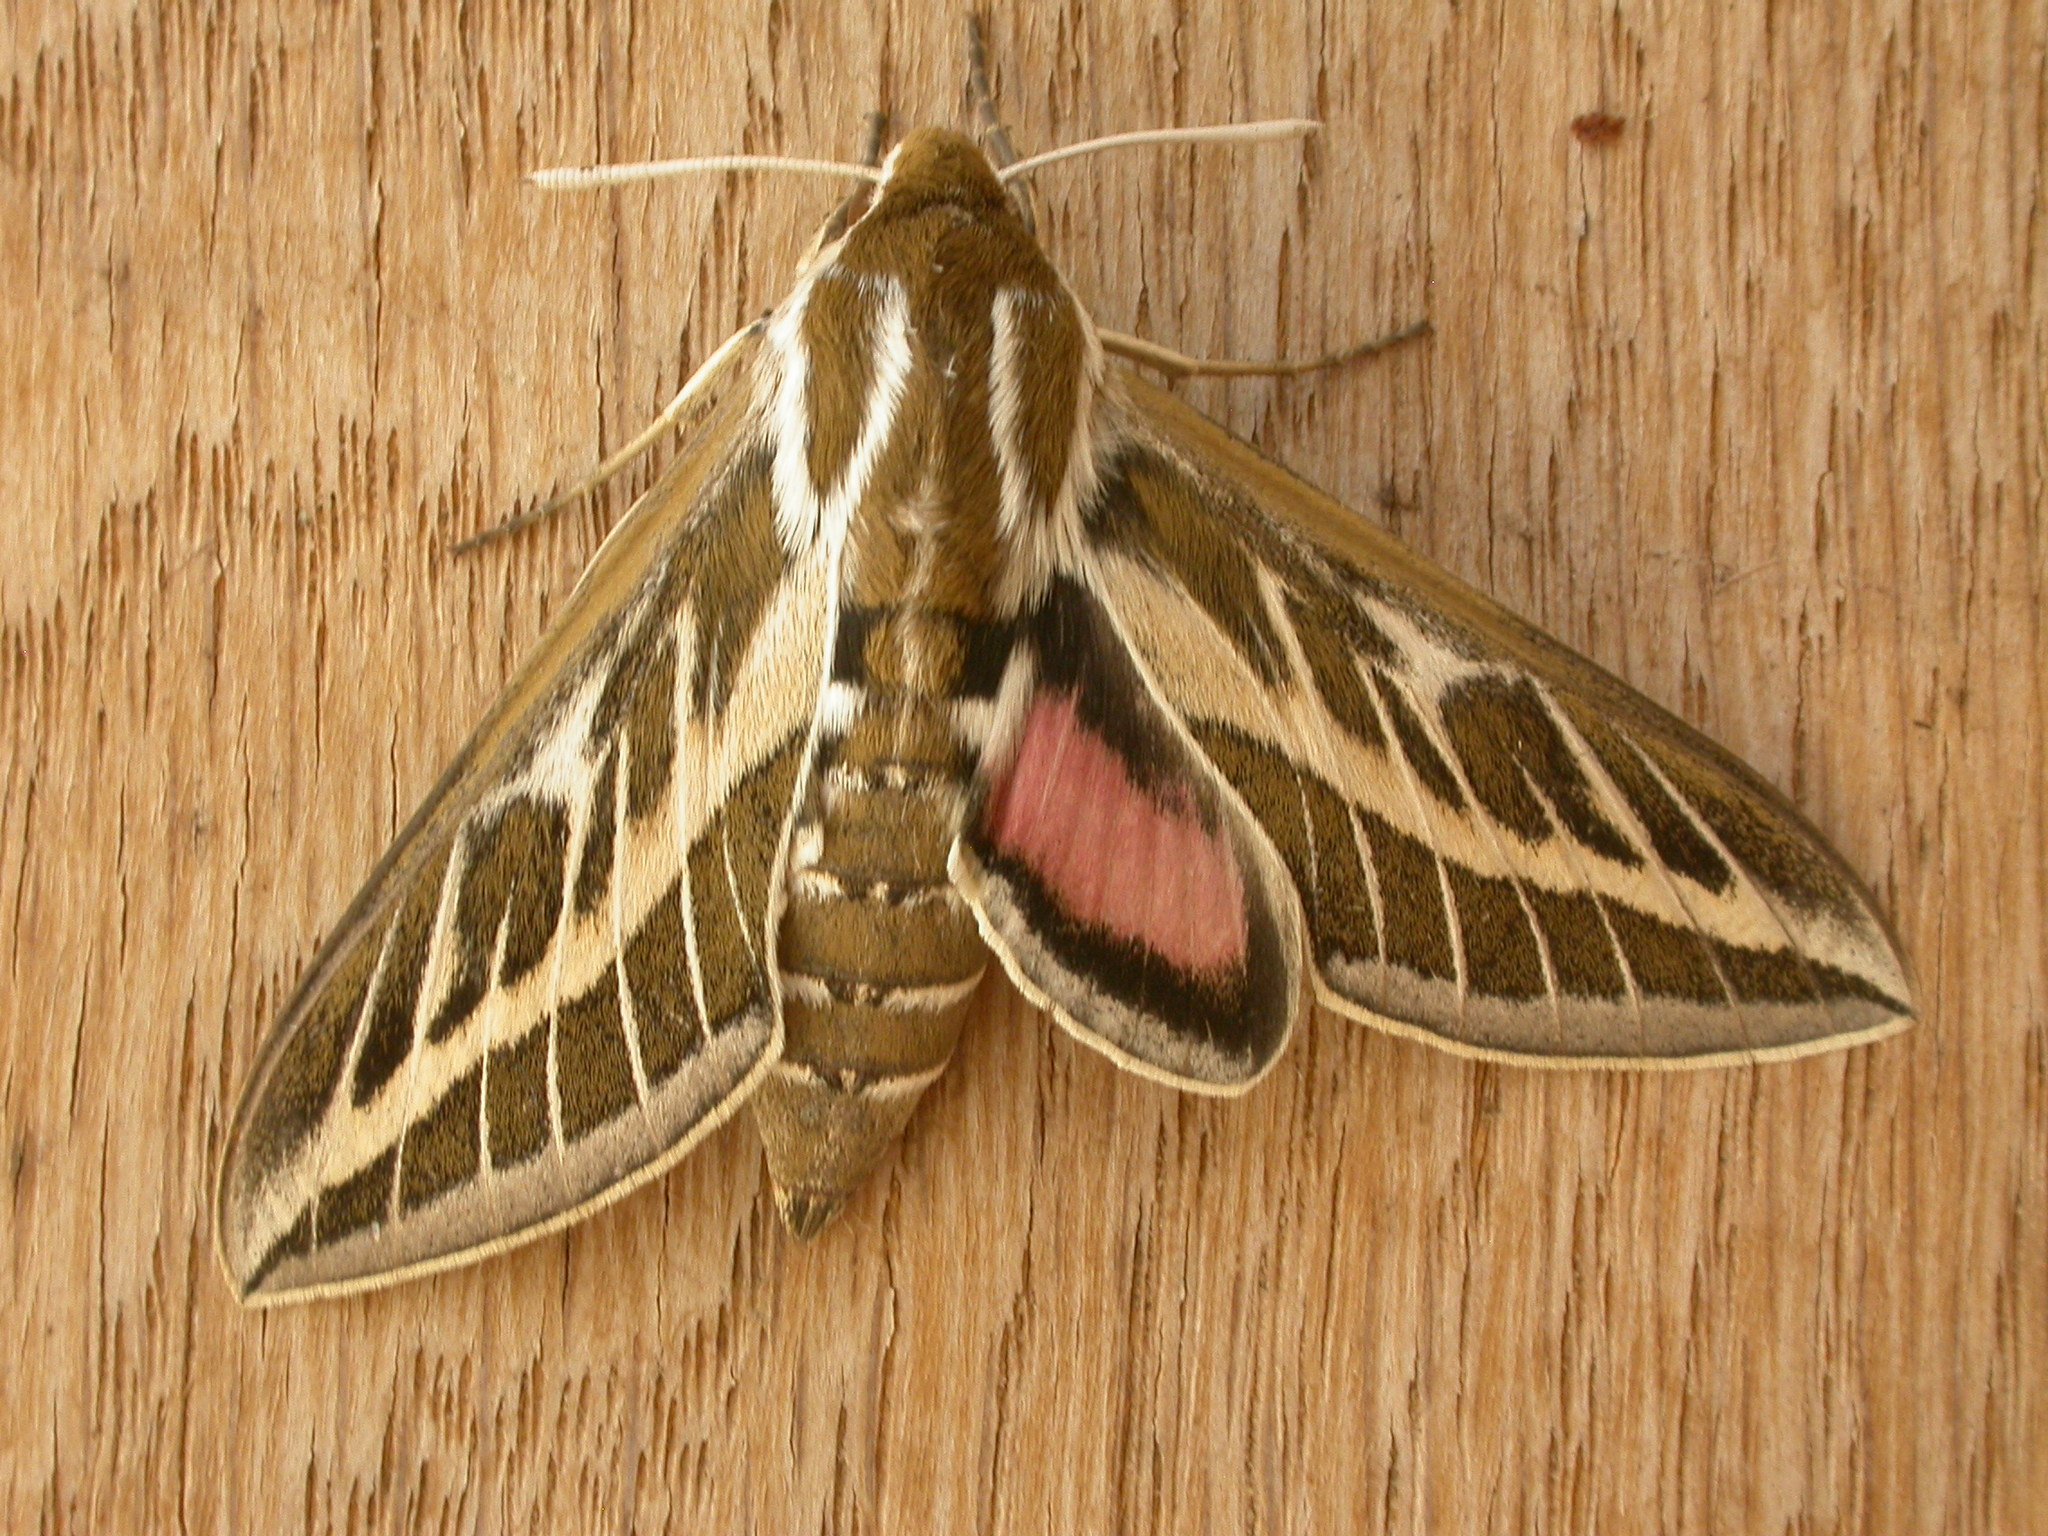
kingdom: Animalia
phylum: Arthropoda
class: Insecta
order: Lepidoptera
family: Sphingidae
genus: Hyles
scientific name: Hyles livornicoides
